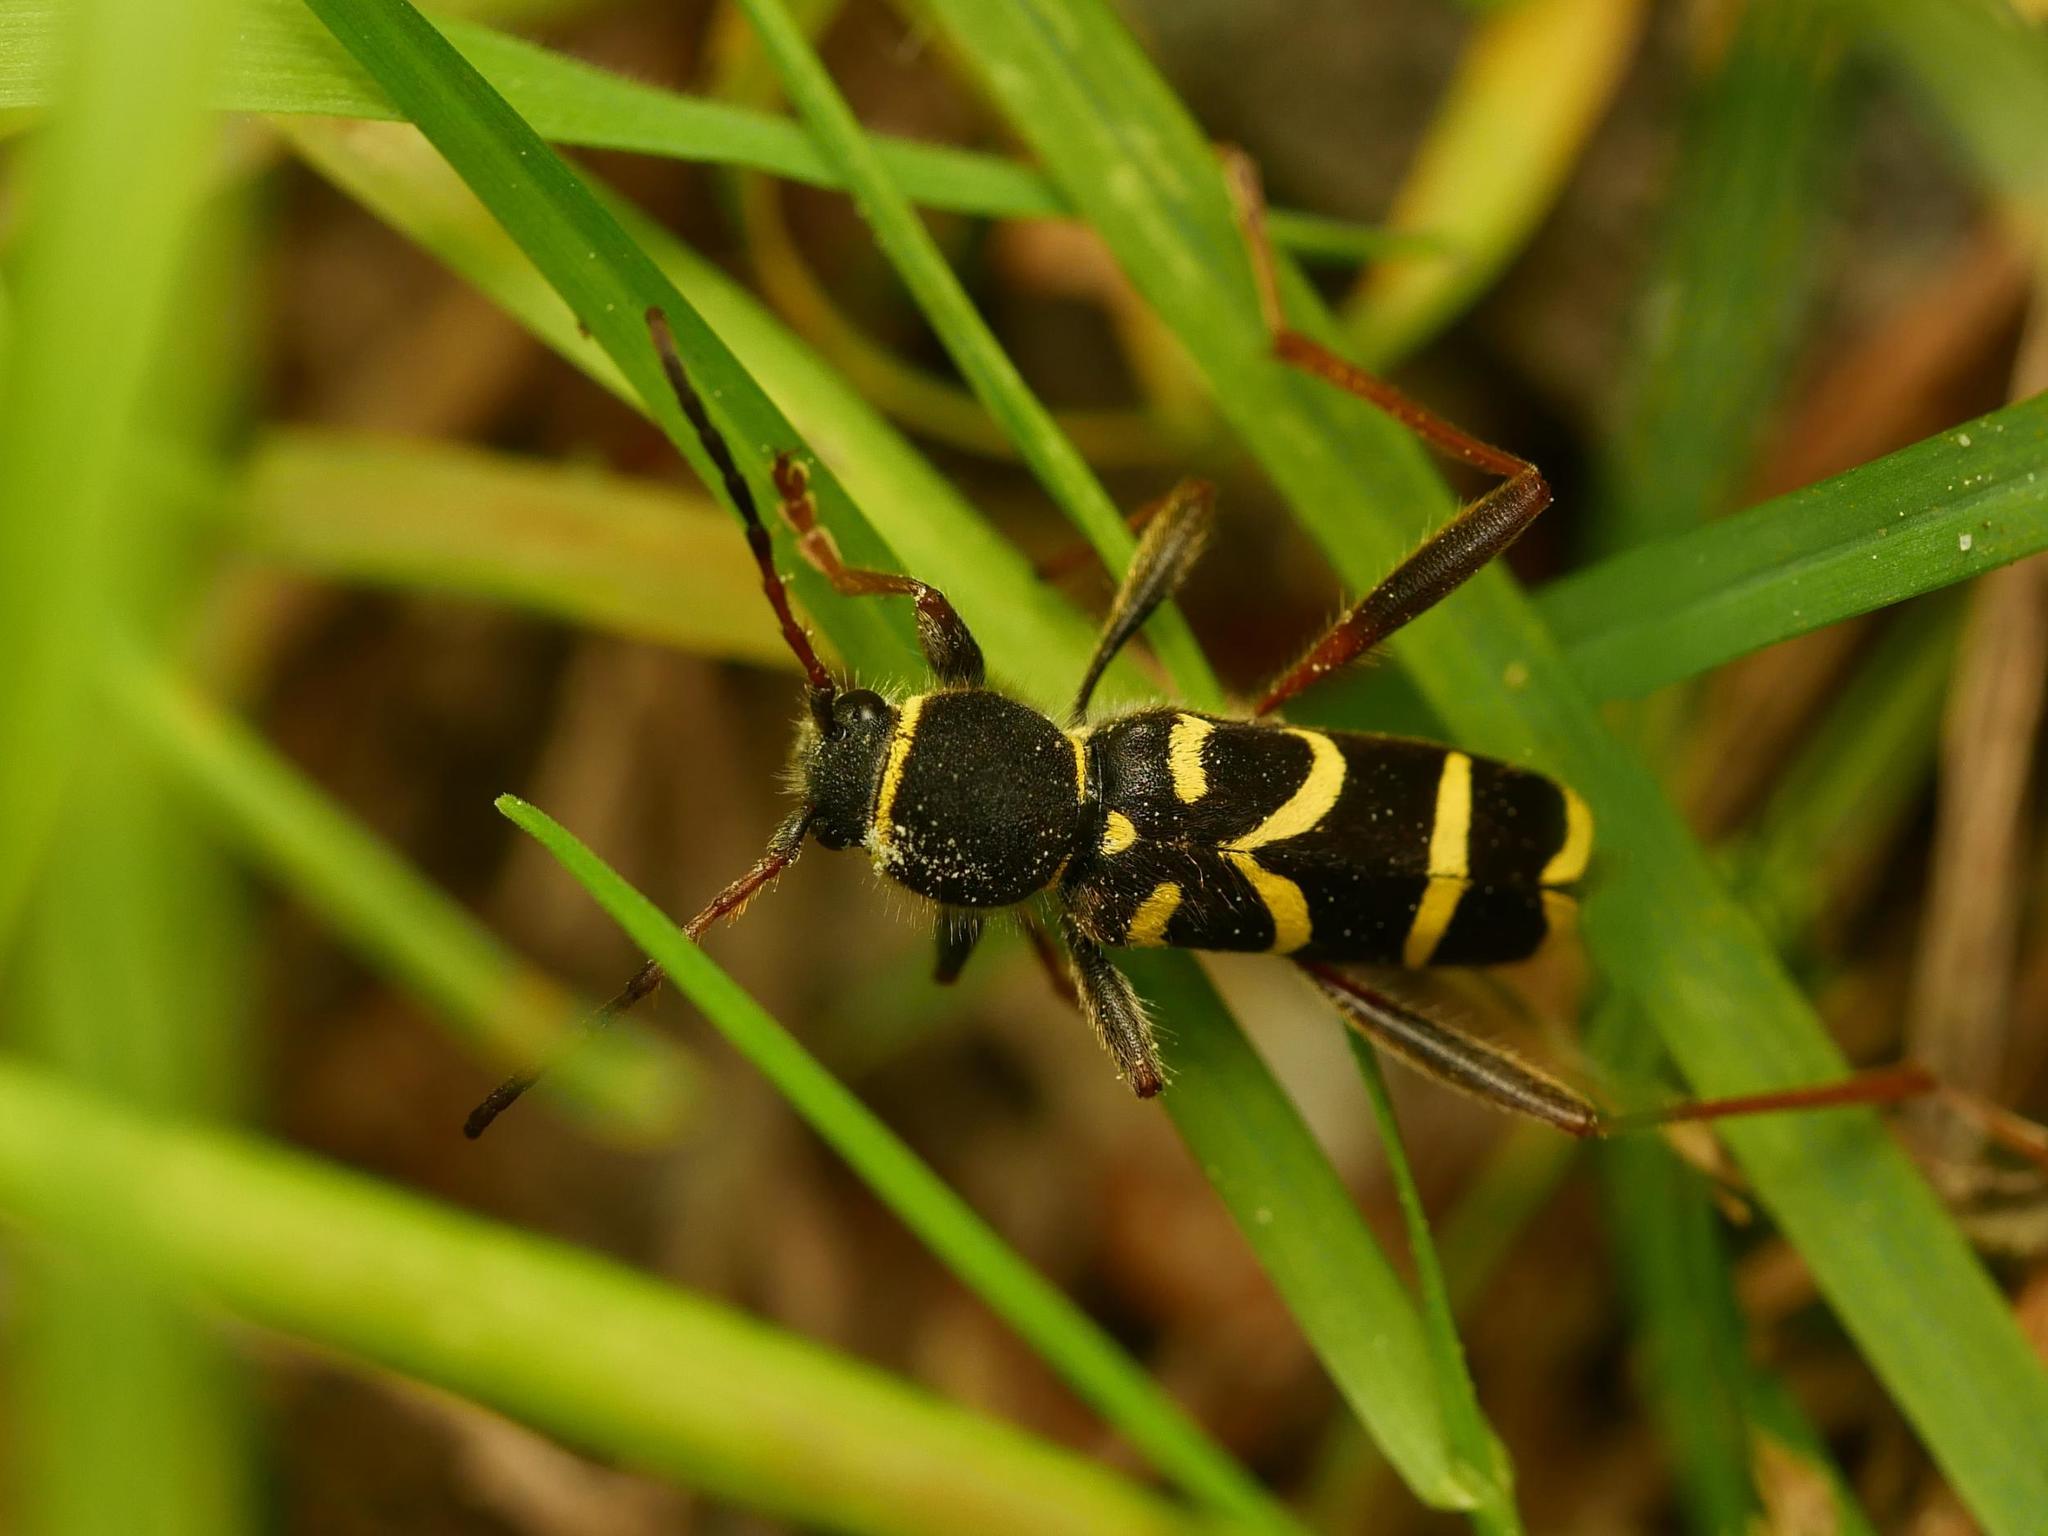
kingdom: Animalia
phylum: Arthropoda
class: Insecta
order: Coleoptera
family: Cerambycidae
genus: Clytus
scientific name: Clytus arietis
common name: Wasp beetle
